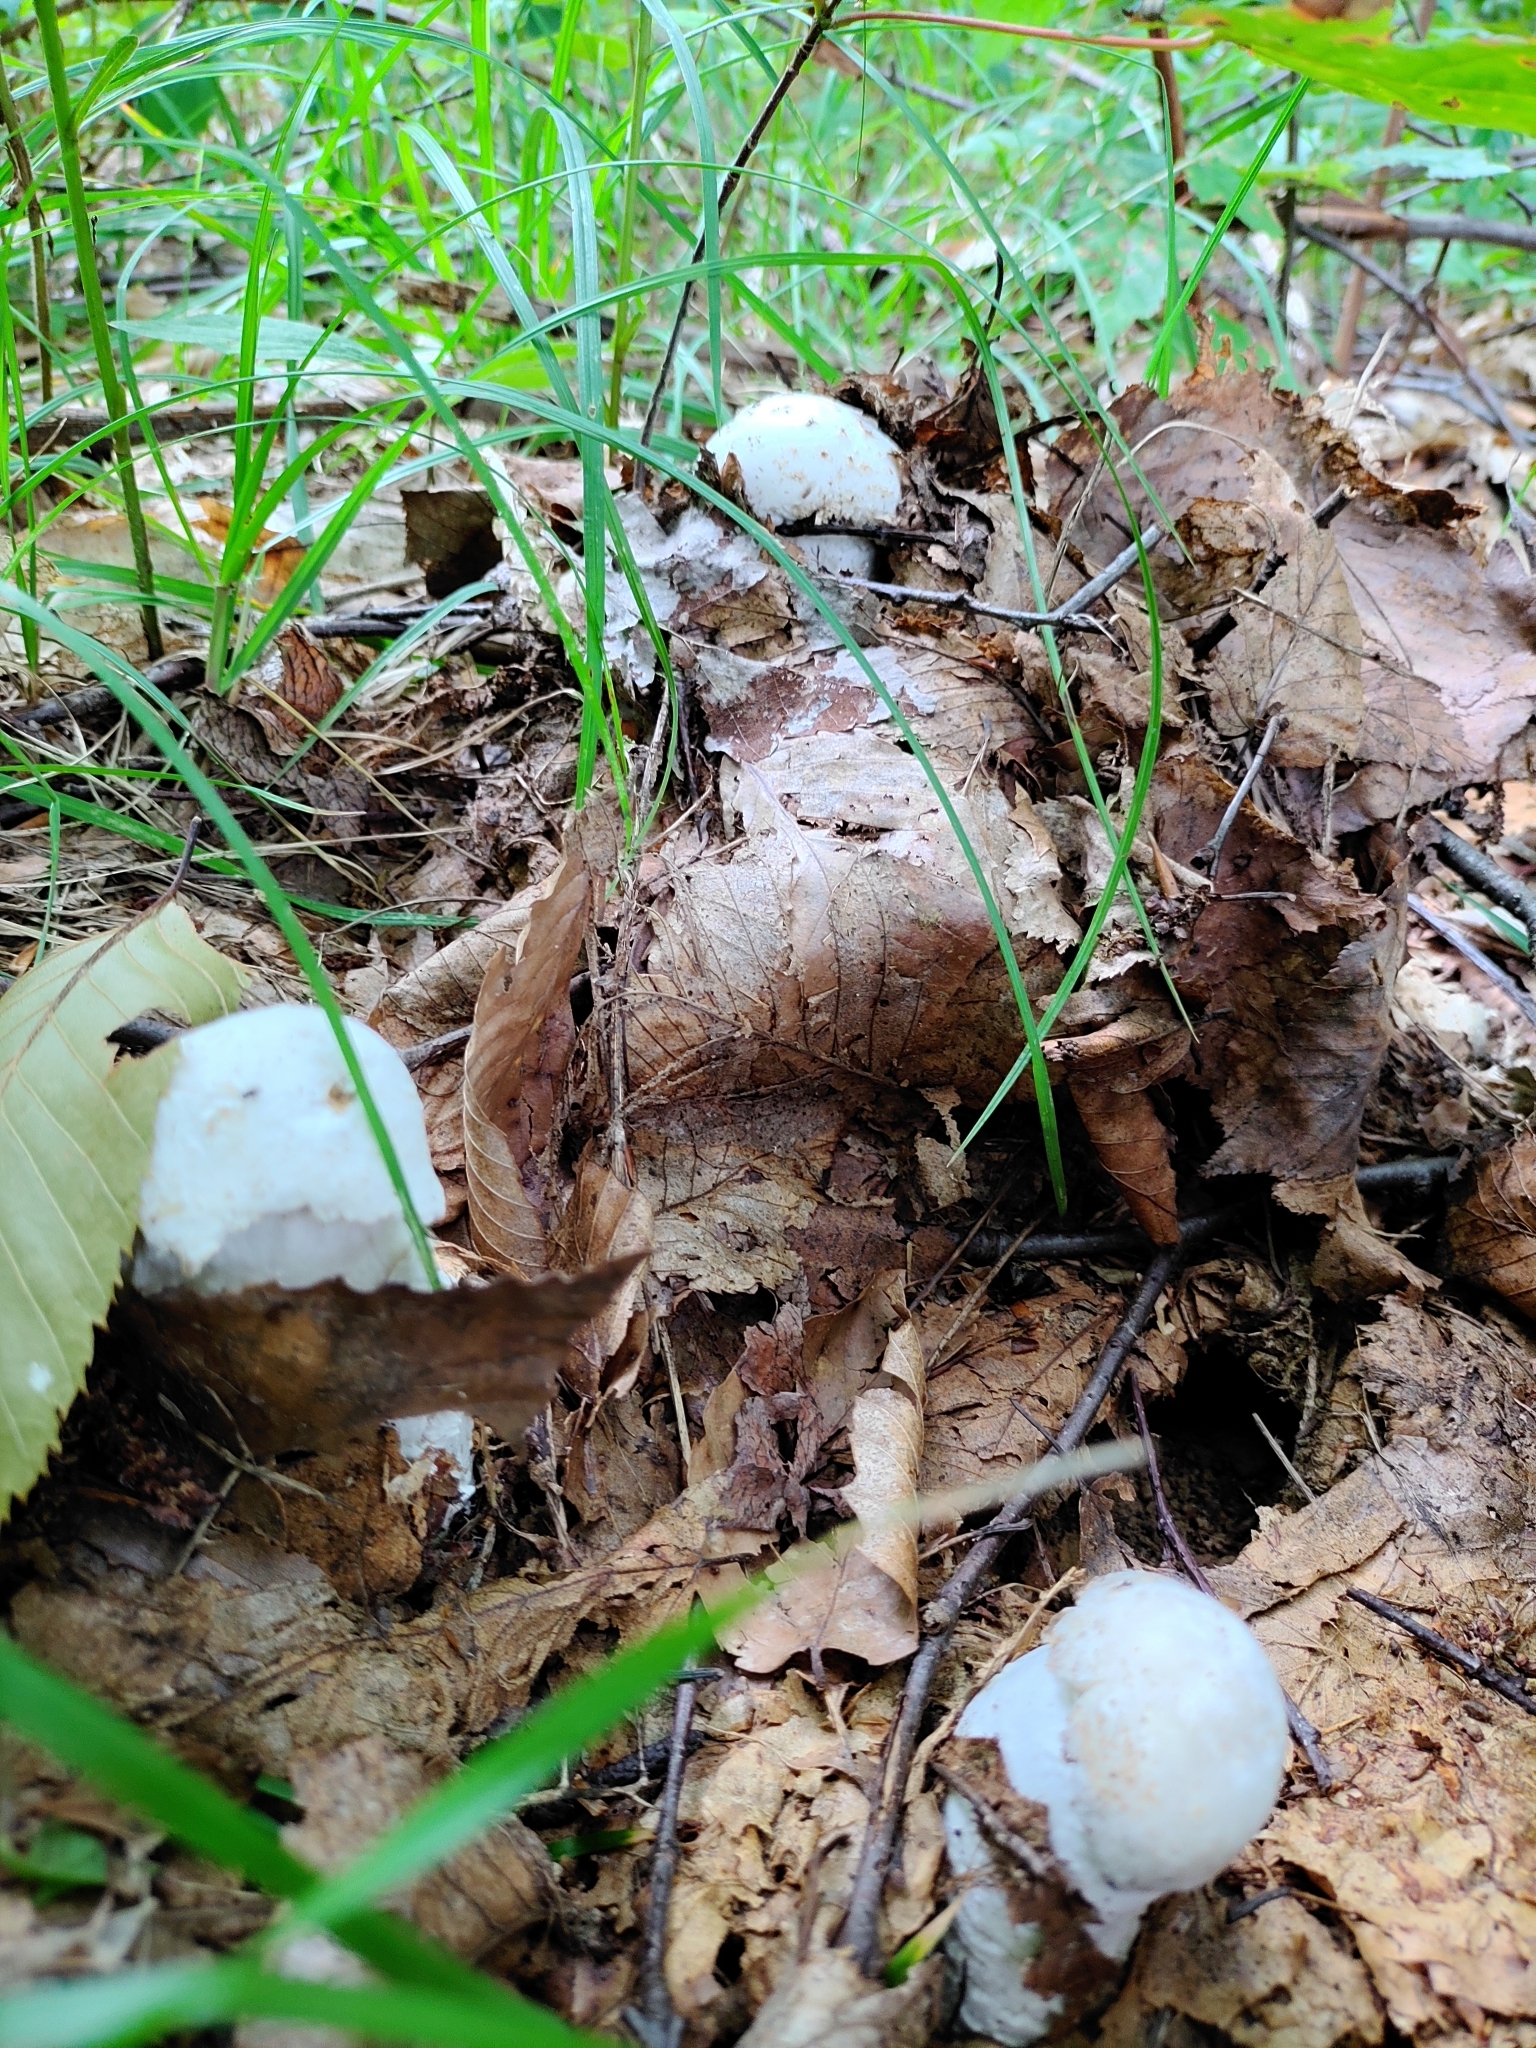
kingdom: Fungi
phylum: Ascomycota
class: Sordariomycetes
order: Hypocreales
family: Hypocreaceae
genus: Hypomyces
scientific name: Hypomyces hyalinus
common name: Amanita mold
